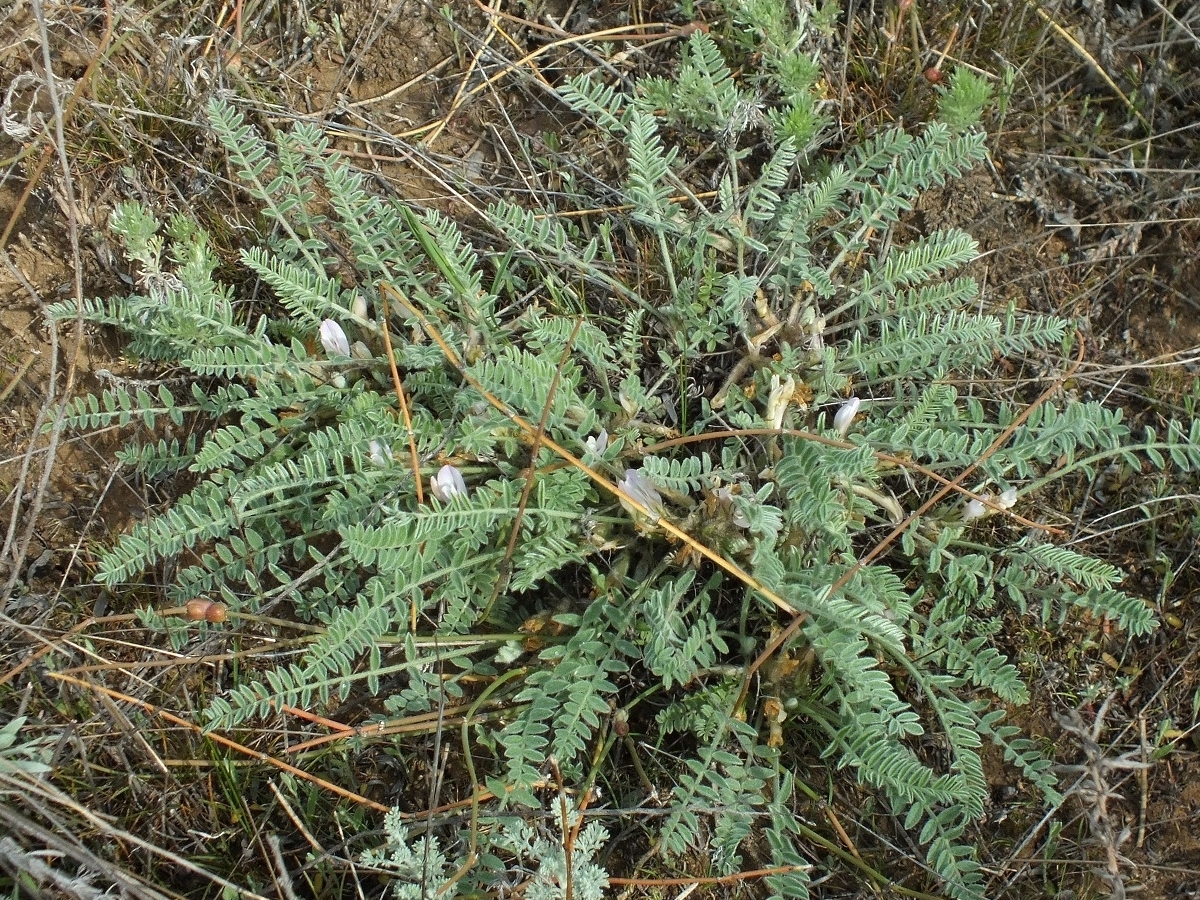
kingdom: Plantae
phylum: Tracheophyta
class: Magnoliopsida
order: Fabales
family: Fabaceae
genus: Astragalus
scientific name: Astragalus testiculatus
